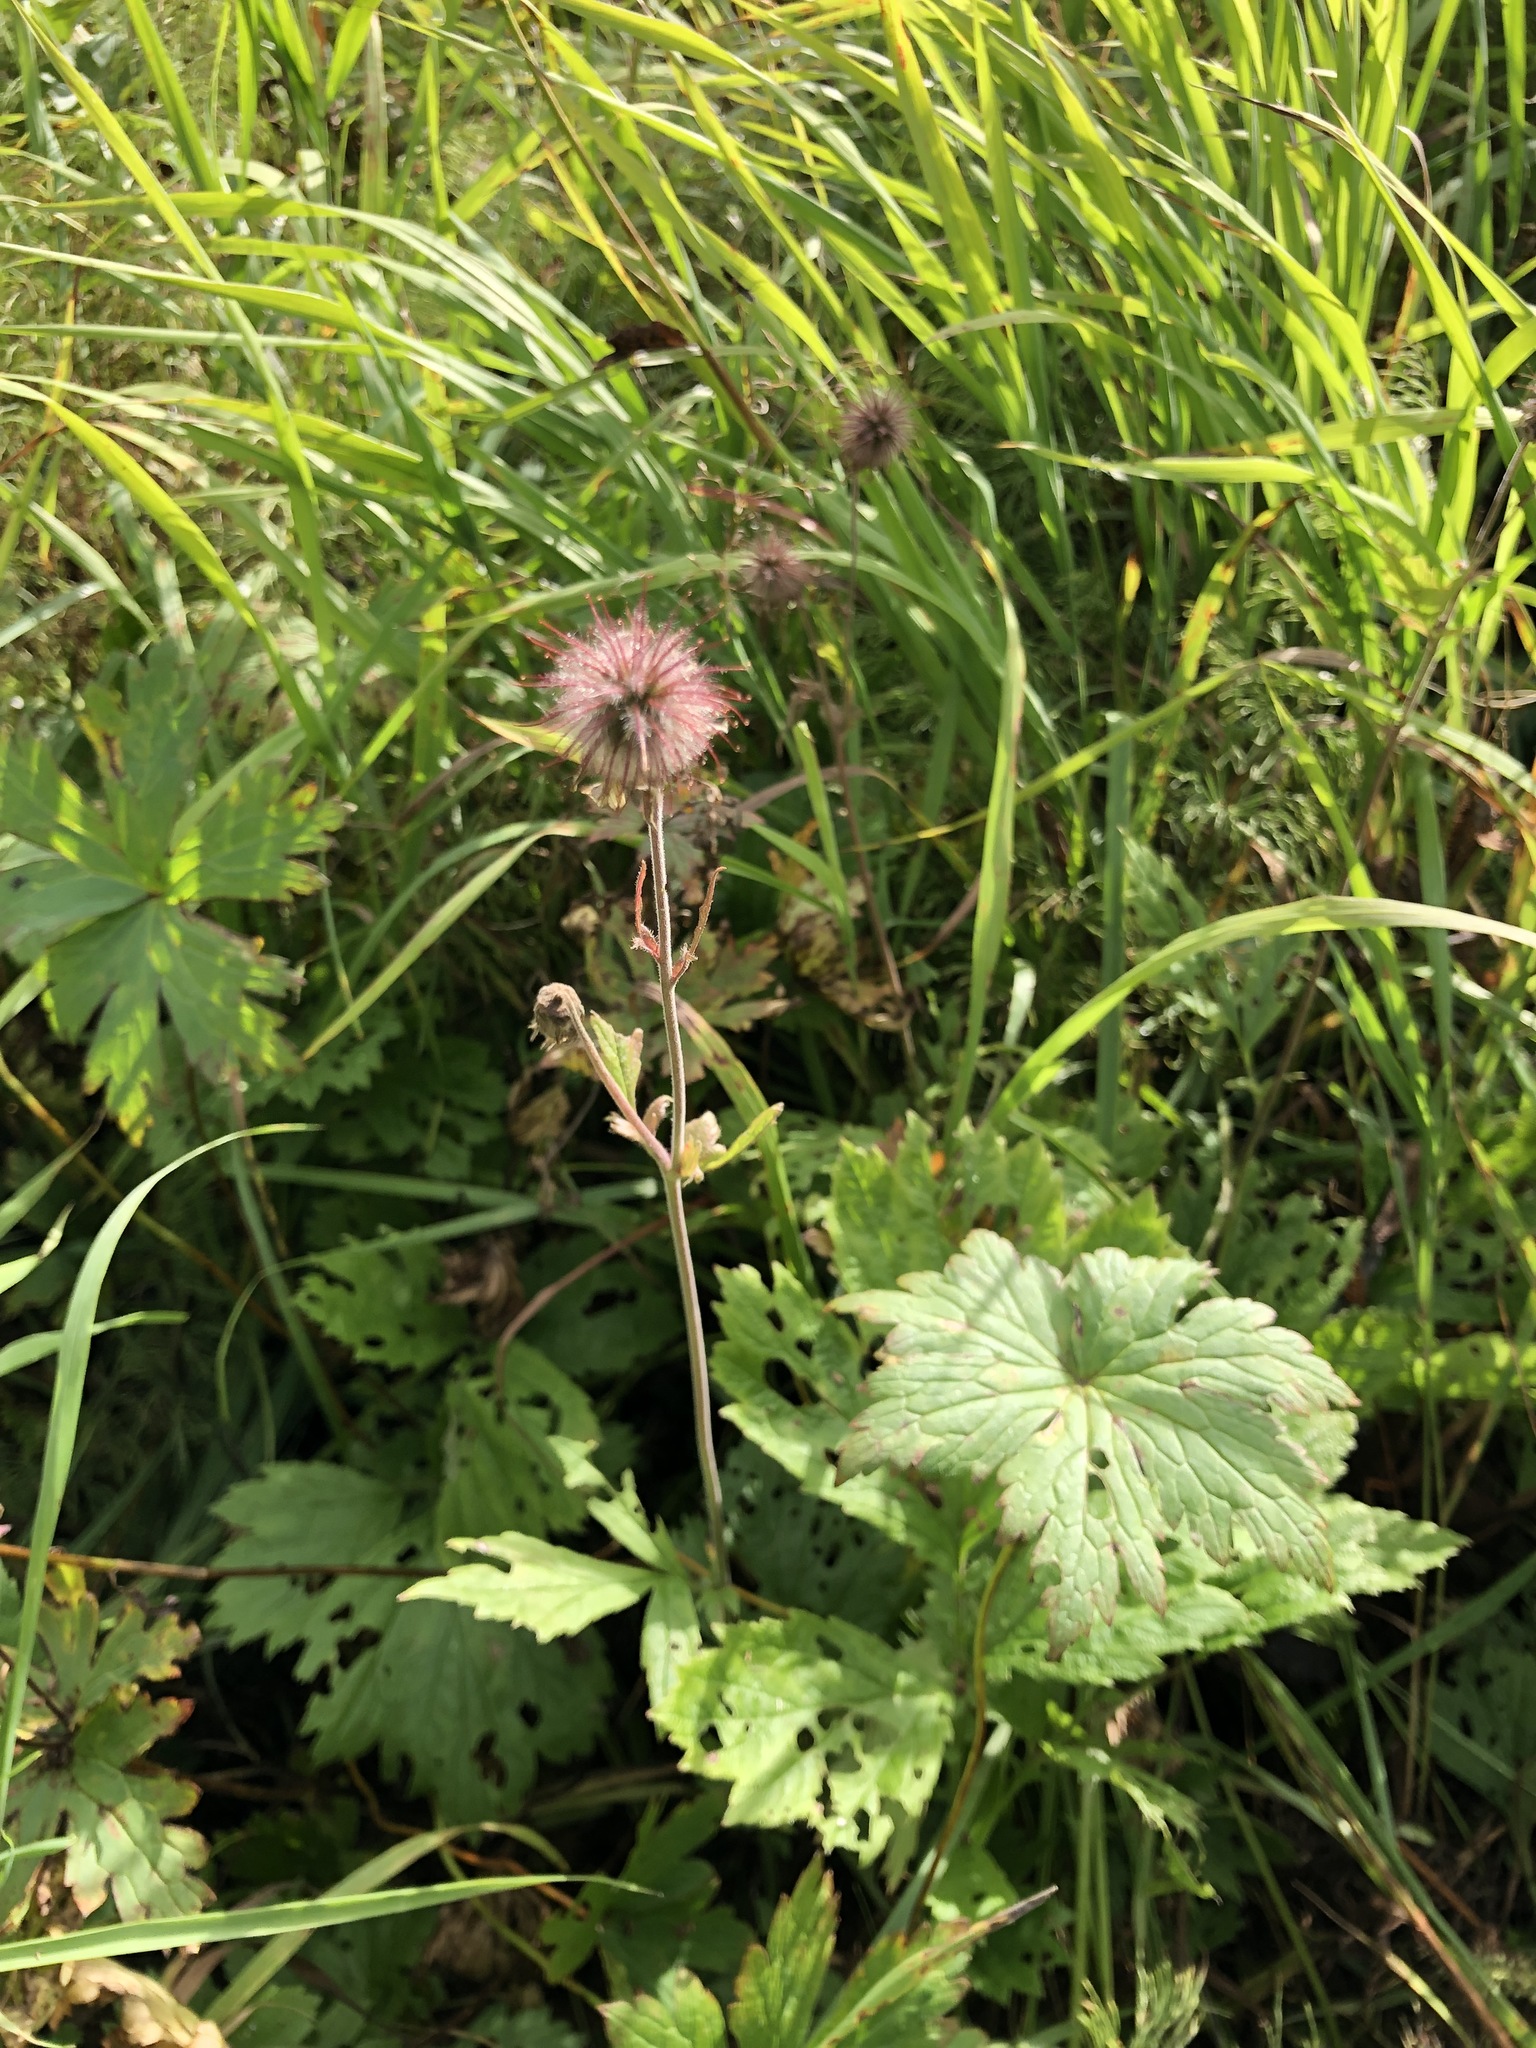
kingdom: Plantae
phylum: Tracheophyta
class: Magnoliopsida
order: Rosales
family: Rosaceae
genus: Geum
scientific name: Geum rivale
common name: Water avens
